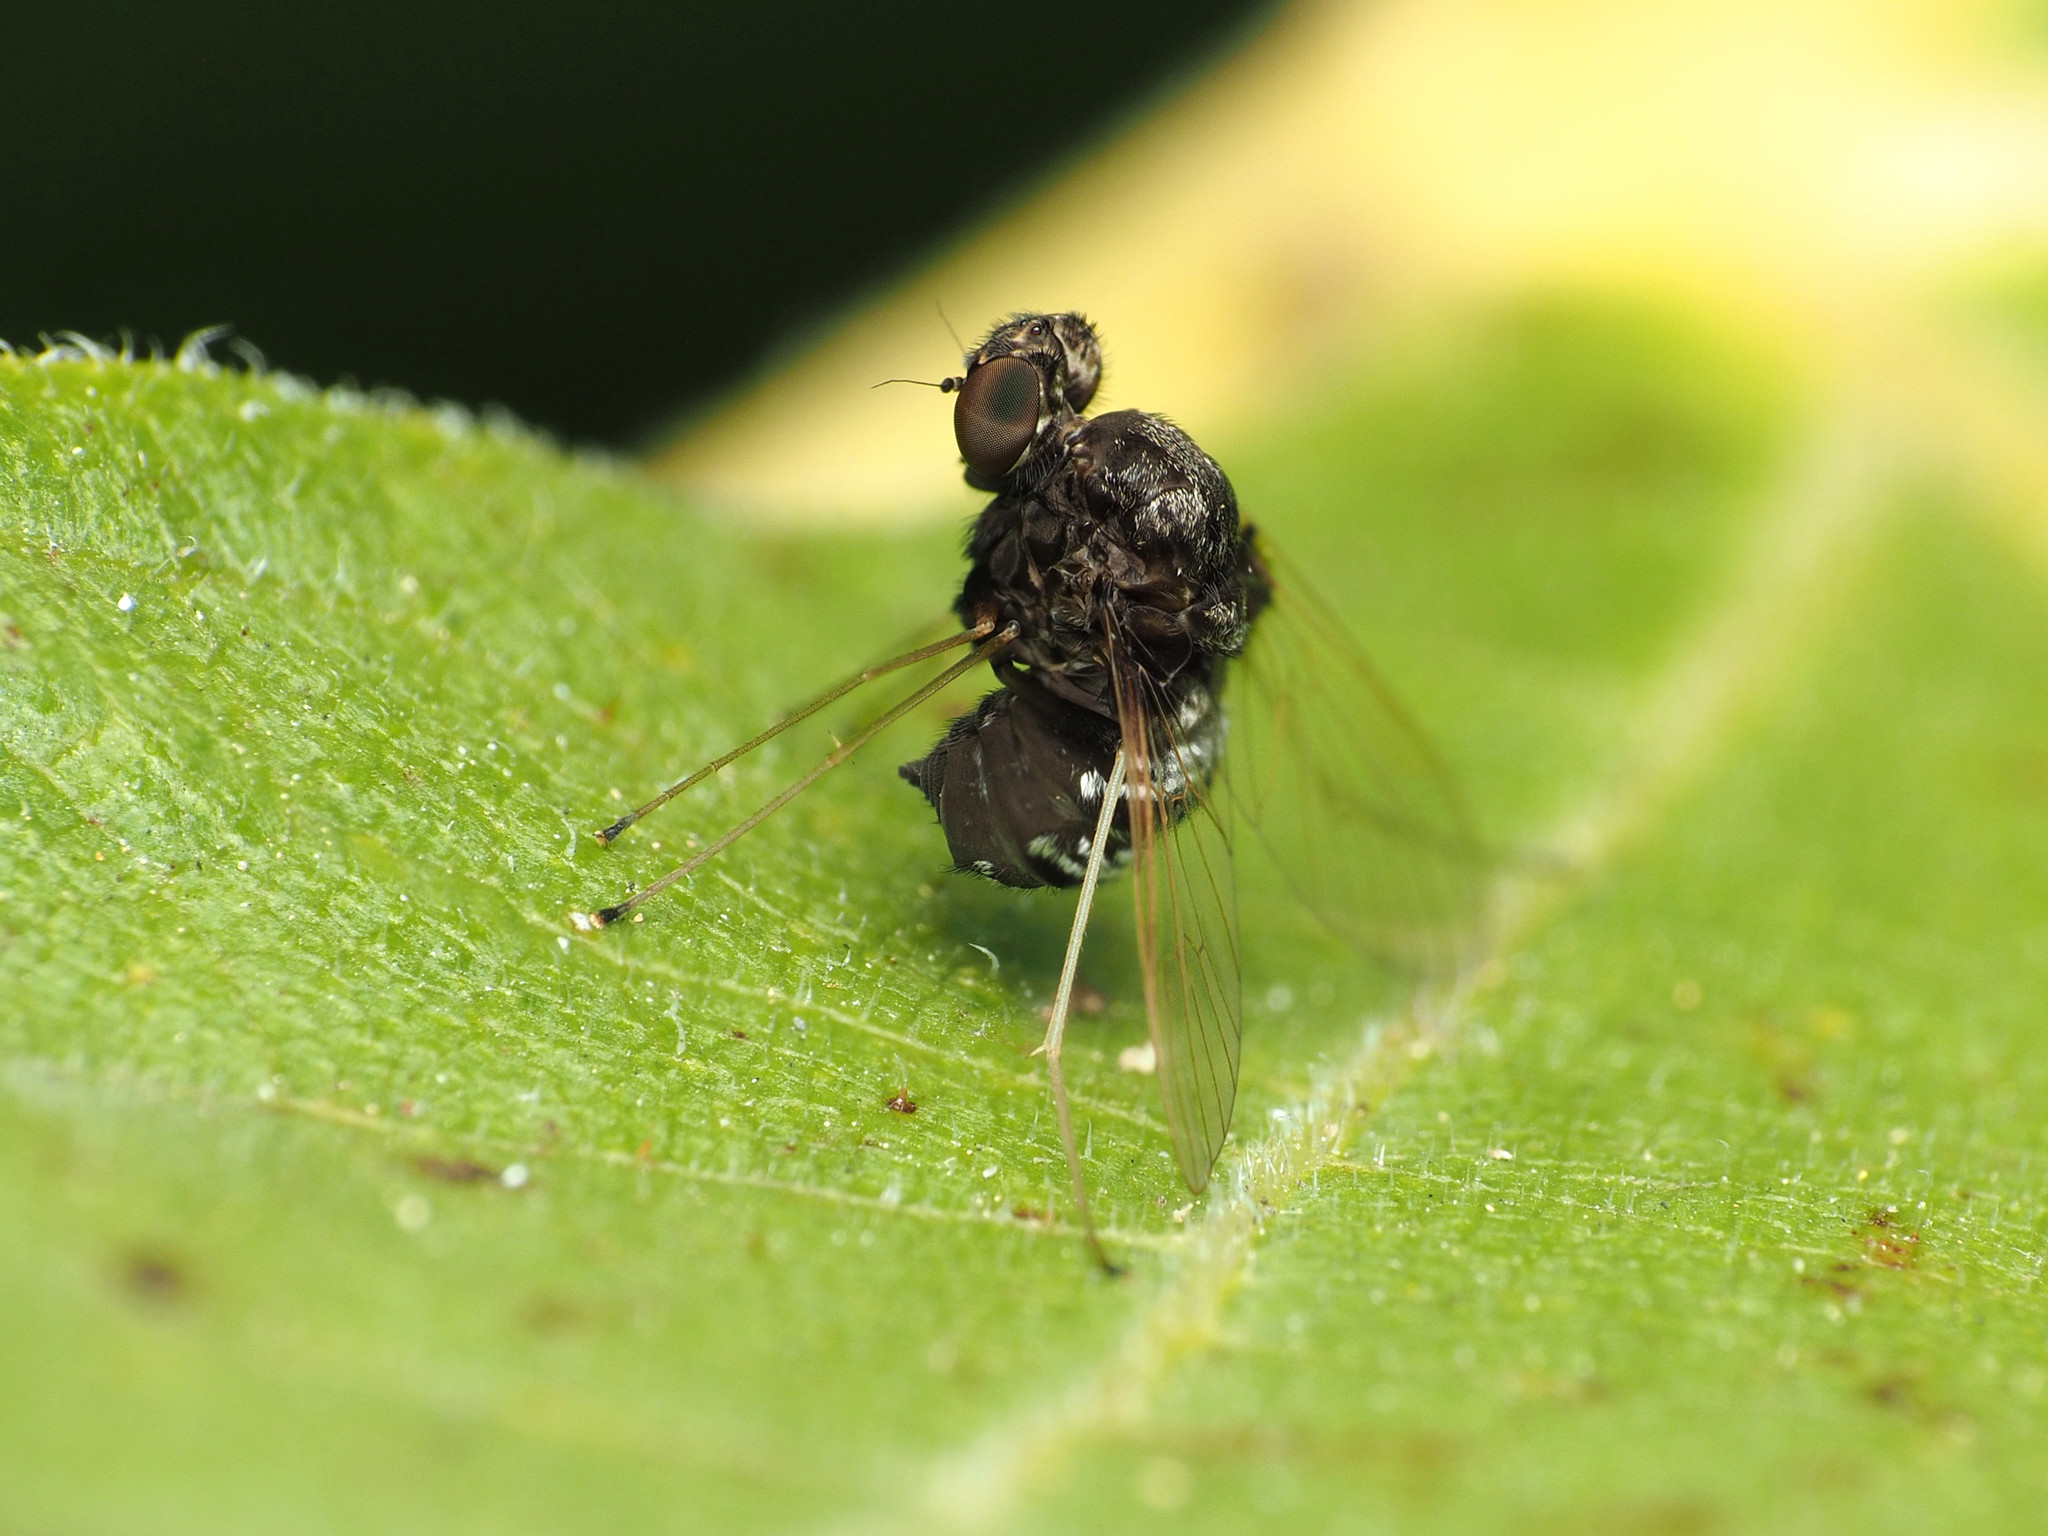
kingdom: Animalia
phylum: Arthropoda
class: Insecta
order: Diptera
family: Rhagionidae
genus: Chrysopilus
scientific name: Chrysopilus basilaris
